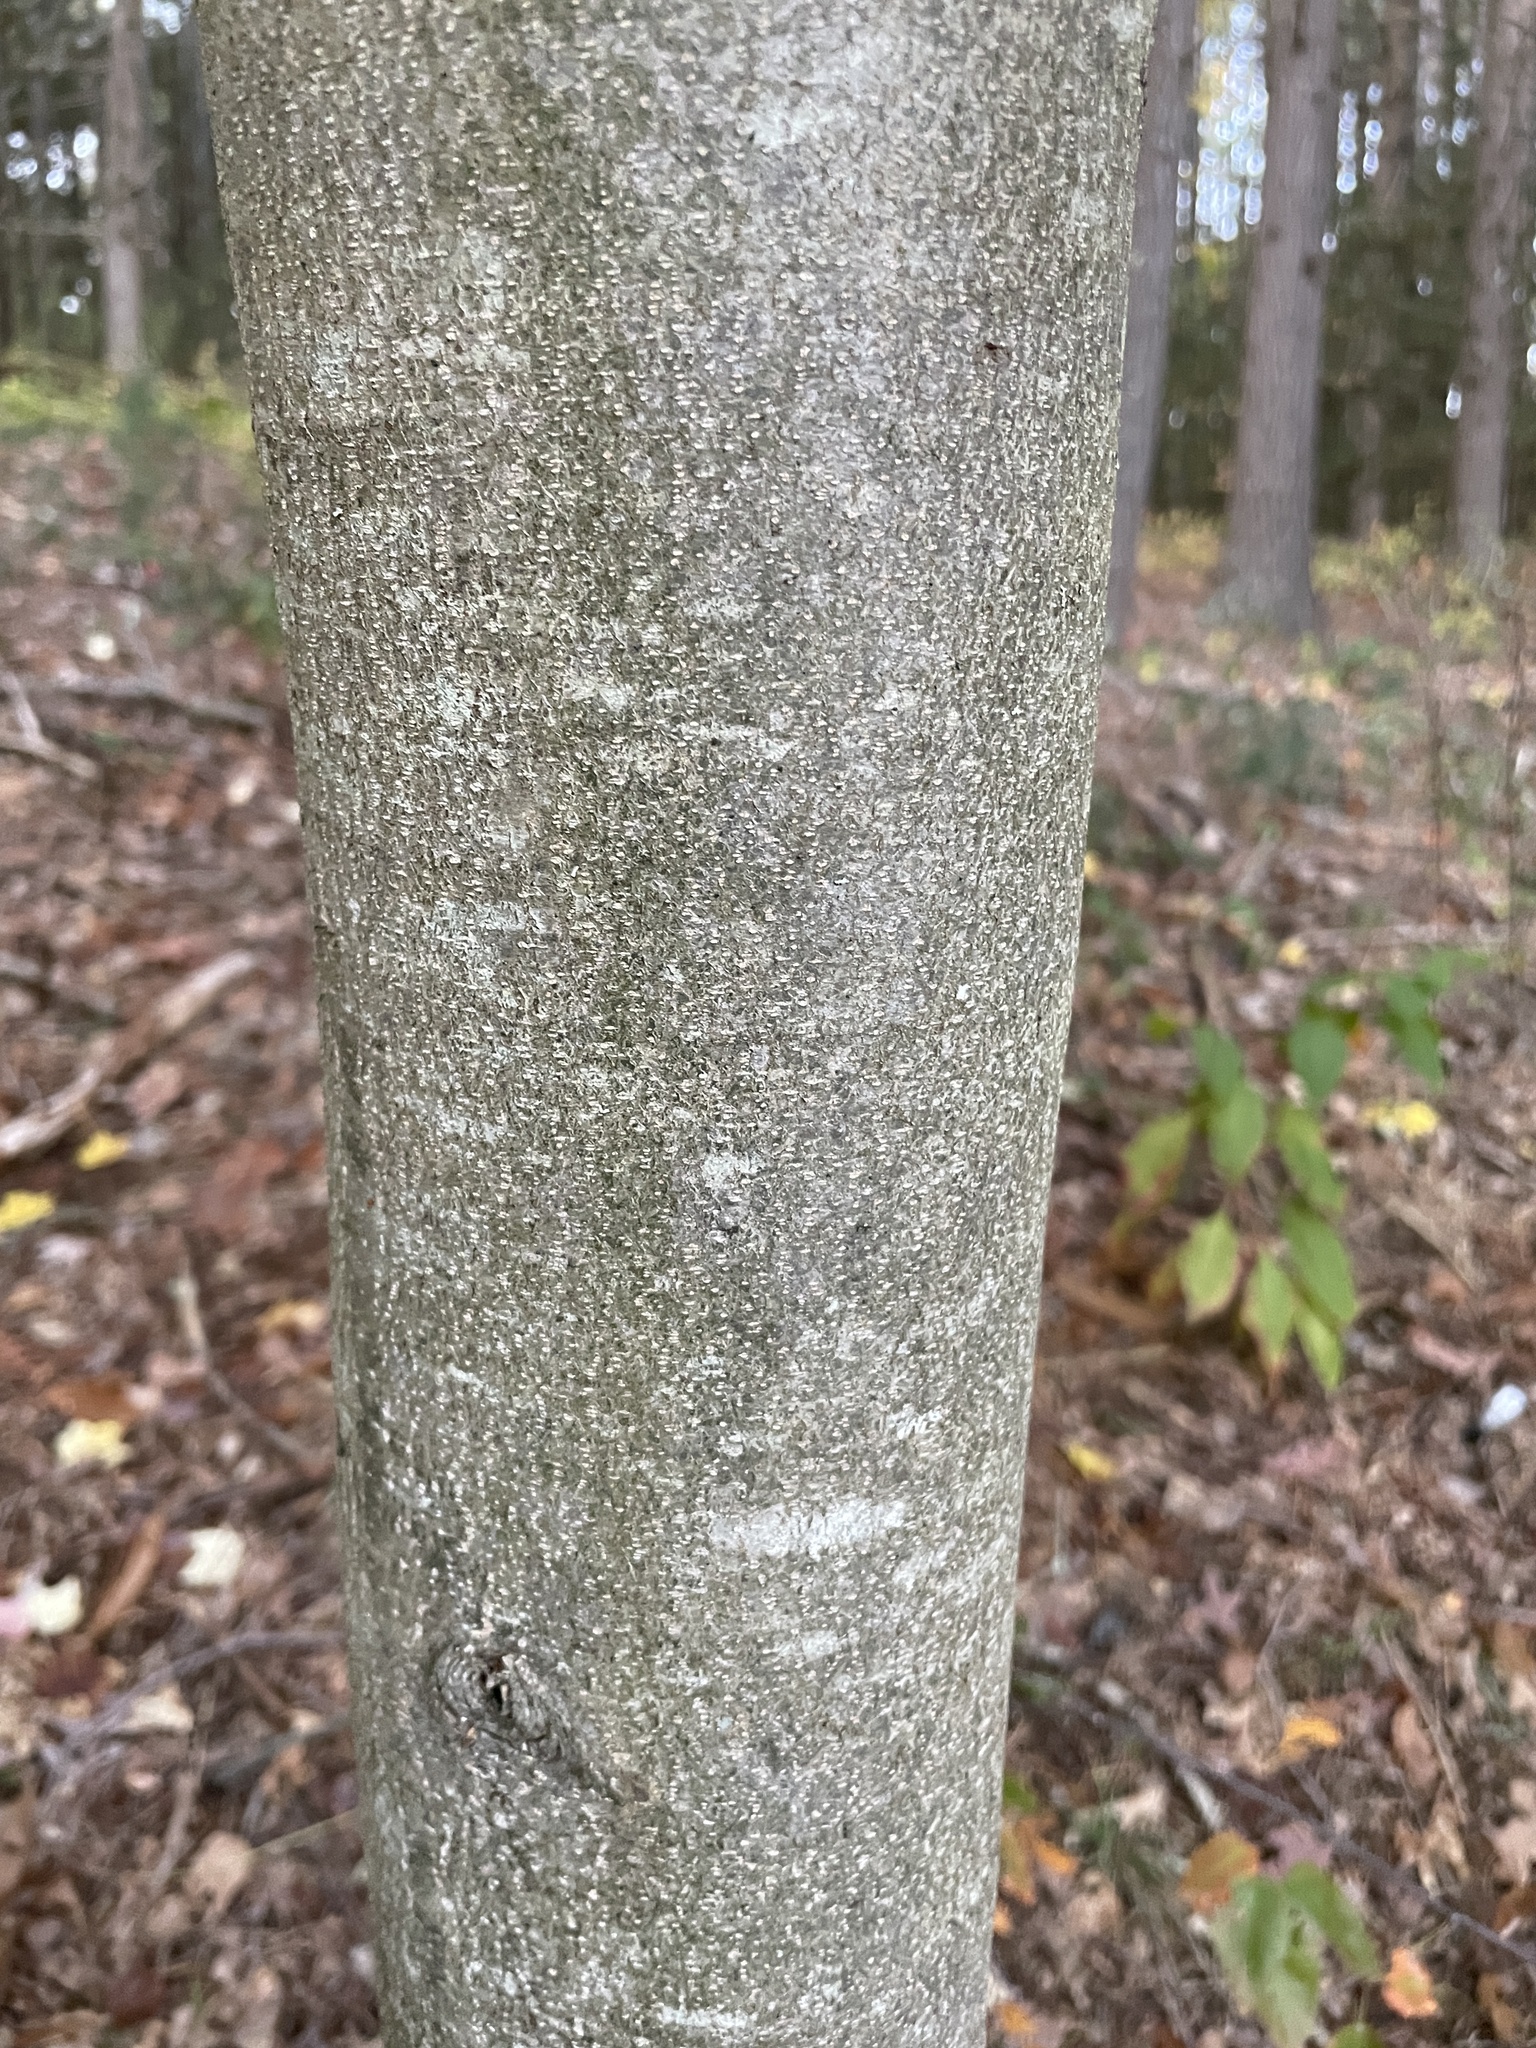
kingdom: Plantae
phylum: Tracheophyta
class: Magnoliopsida
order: Fagales
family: Fagaceae
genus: Castanea
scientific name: Castanea dentata
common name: American chestnut
